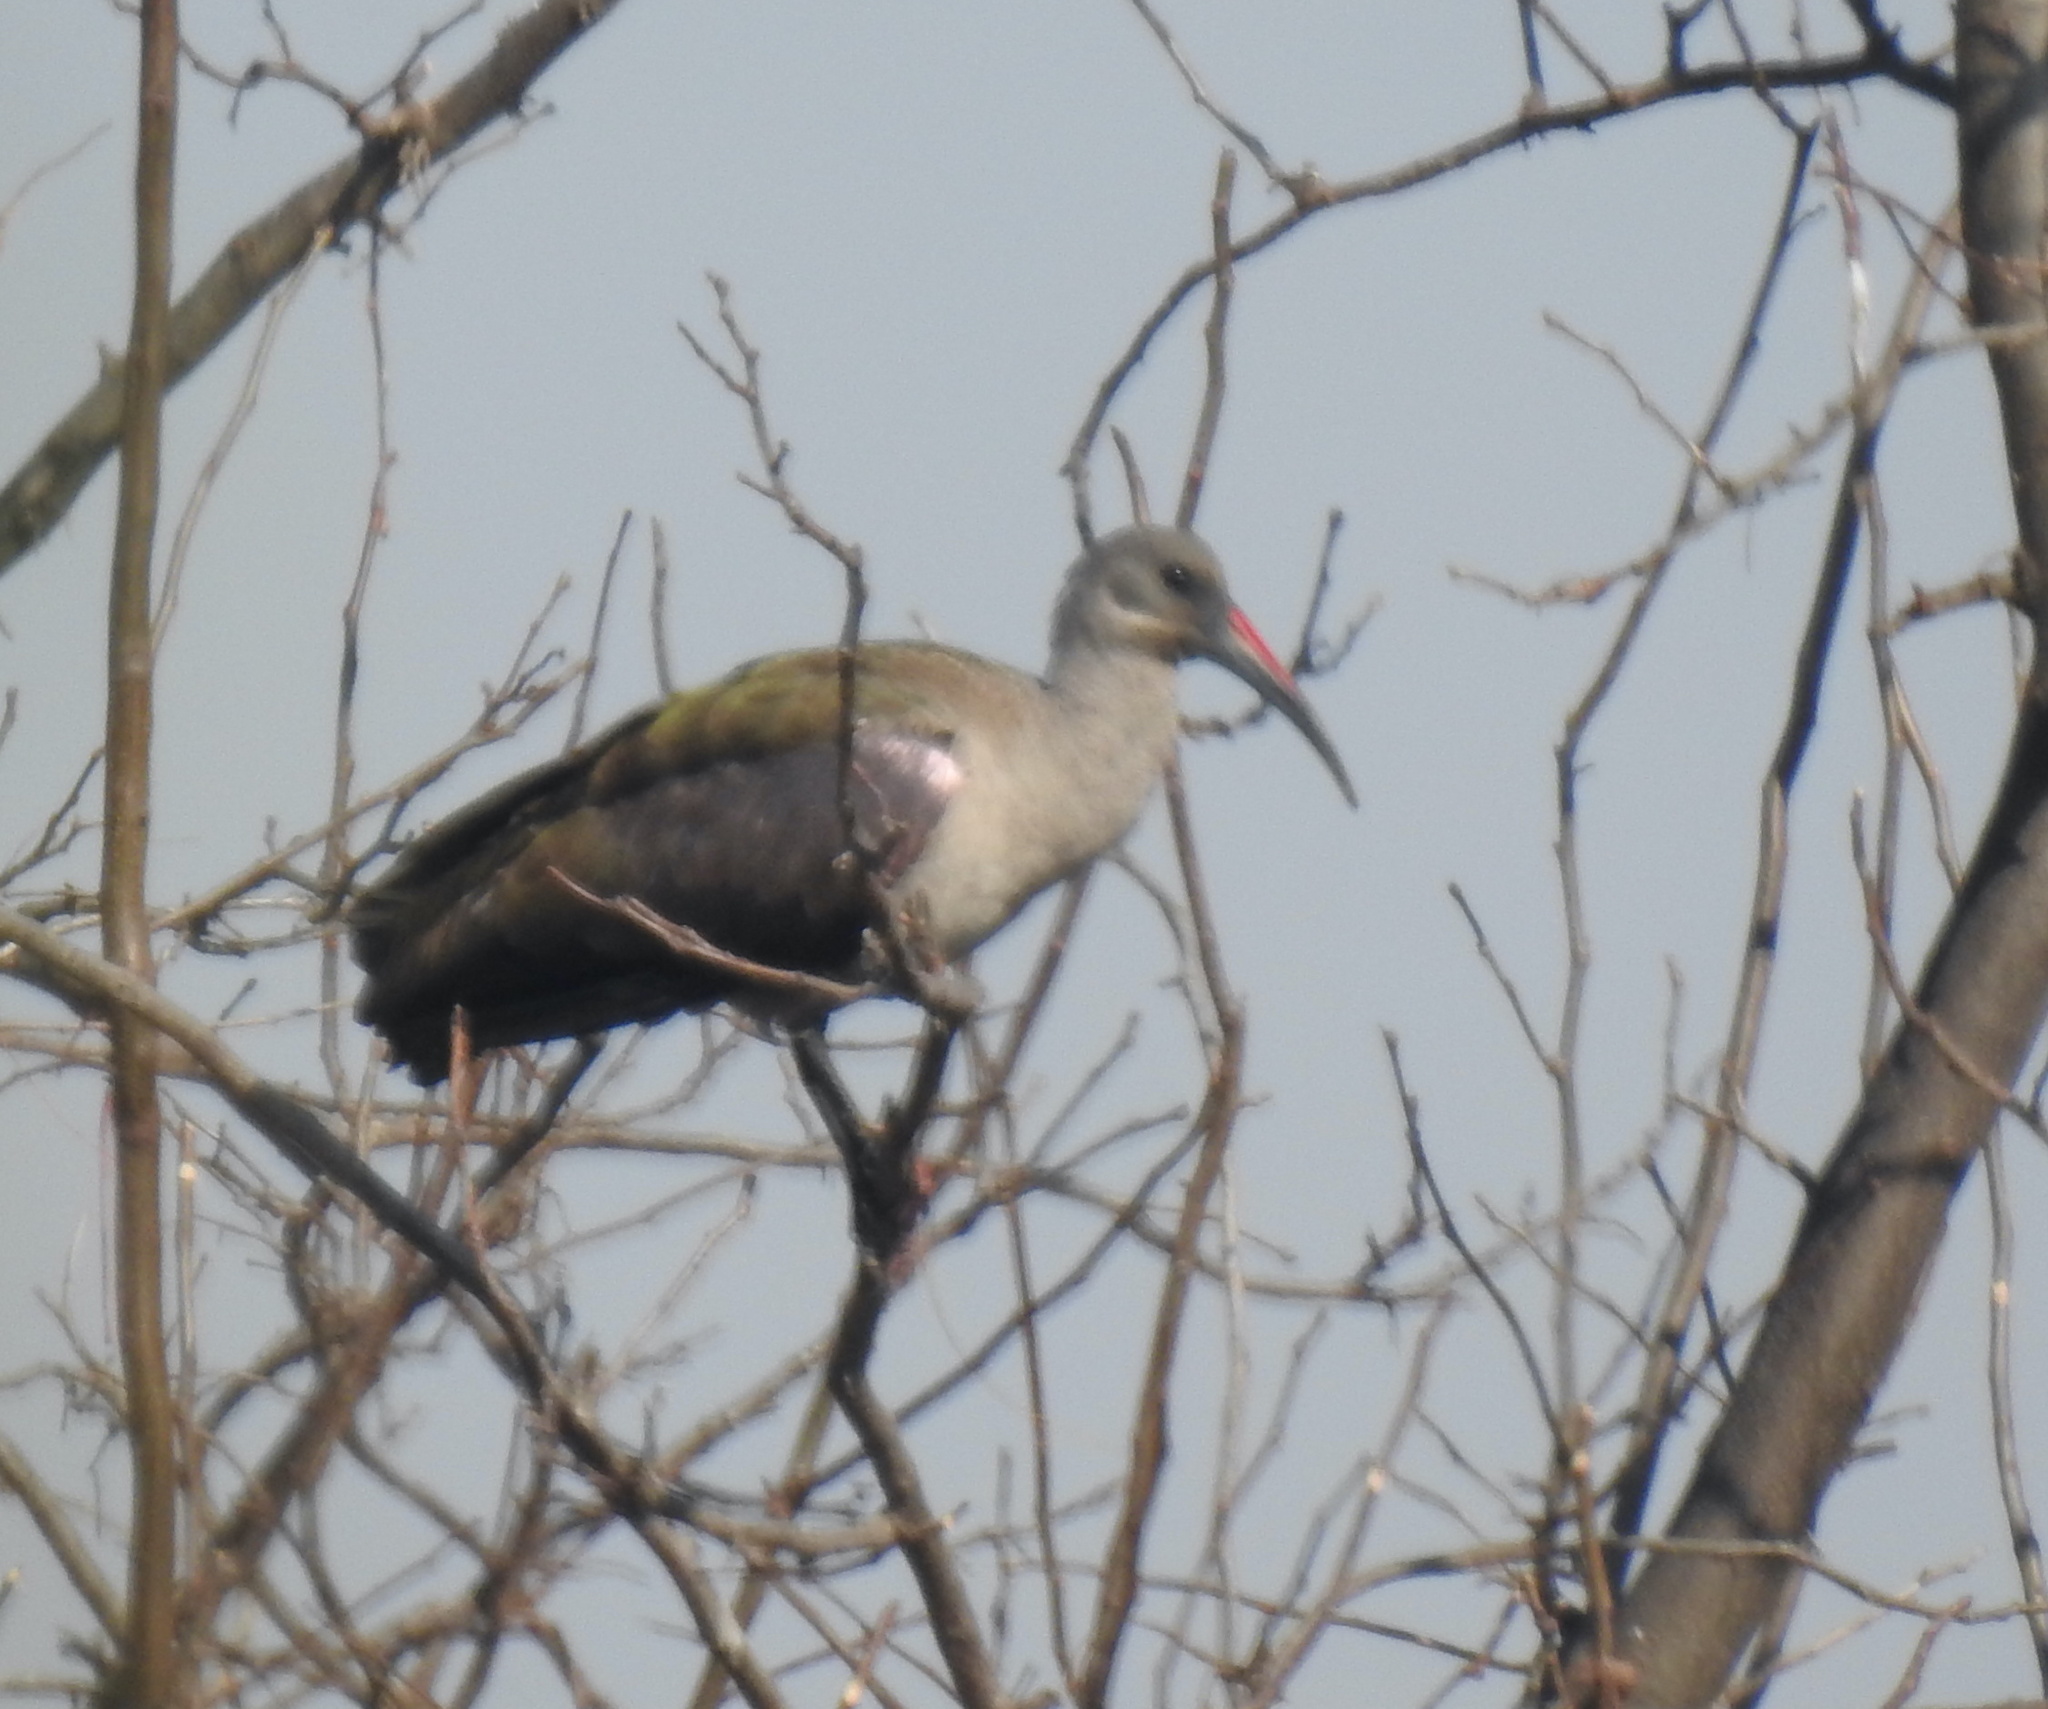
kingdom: Animalia
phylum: Chordata
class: Aves
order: Pelecaniformes
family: Threskiornithidae
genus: Bostrychia
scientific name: Bostrychia hagedash
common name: Hadada ibis
